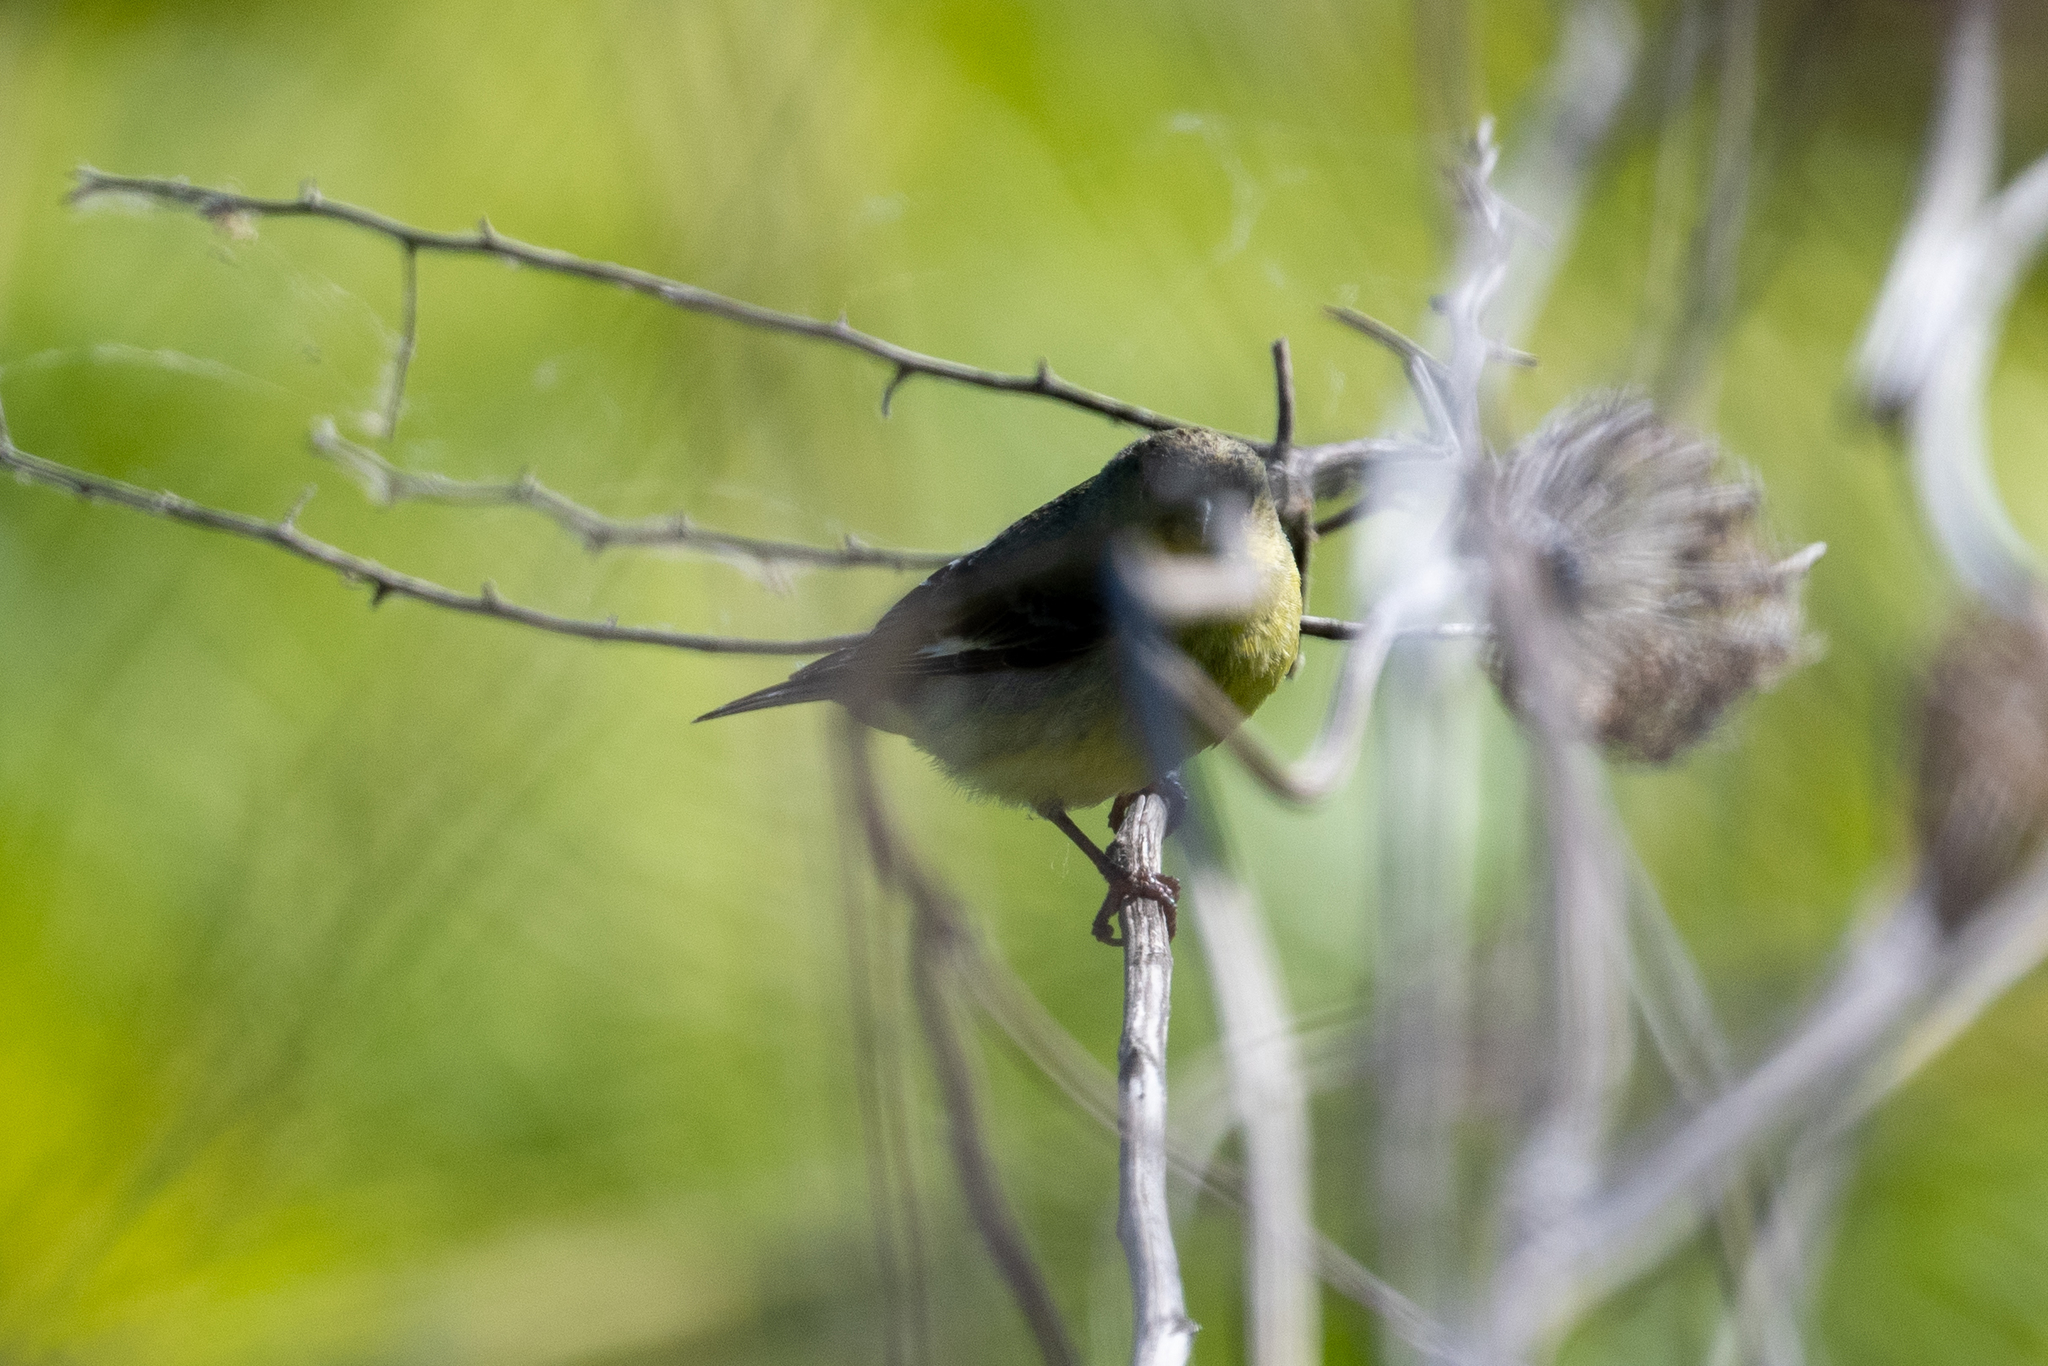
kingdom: Animalia
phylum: Chordata
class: Aves
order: Passeriformes
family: Fringillidae
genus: Spinus
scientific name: Spinus psaltria
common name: Lesser goldfinch
